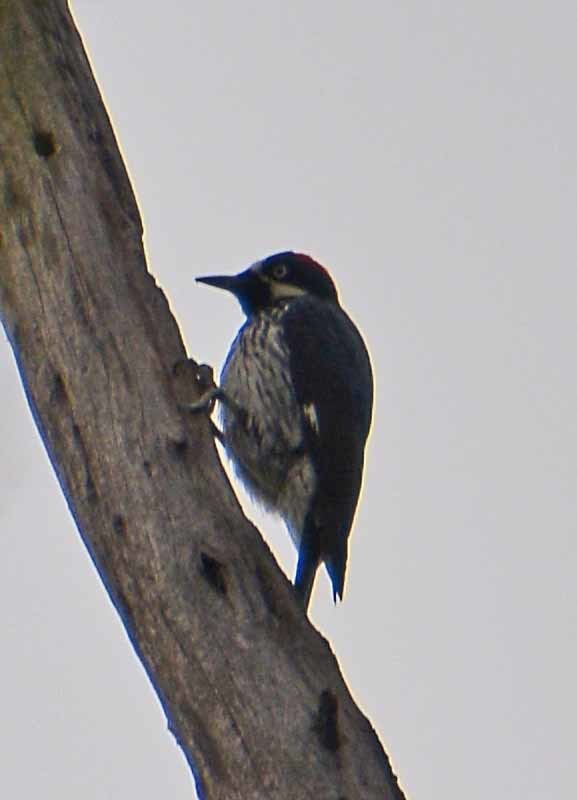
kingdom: Animalia
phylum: Chordata
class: Aves
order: Piciformes
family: Picidae
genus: Melanerpes
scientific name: Melanerpes formicivorus
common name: Acorn woodpecker
